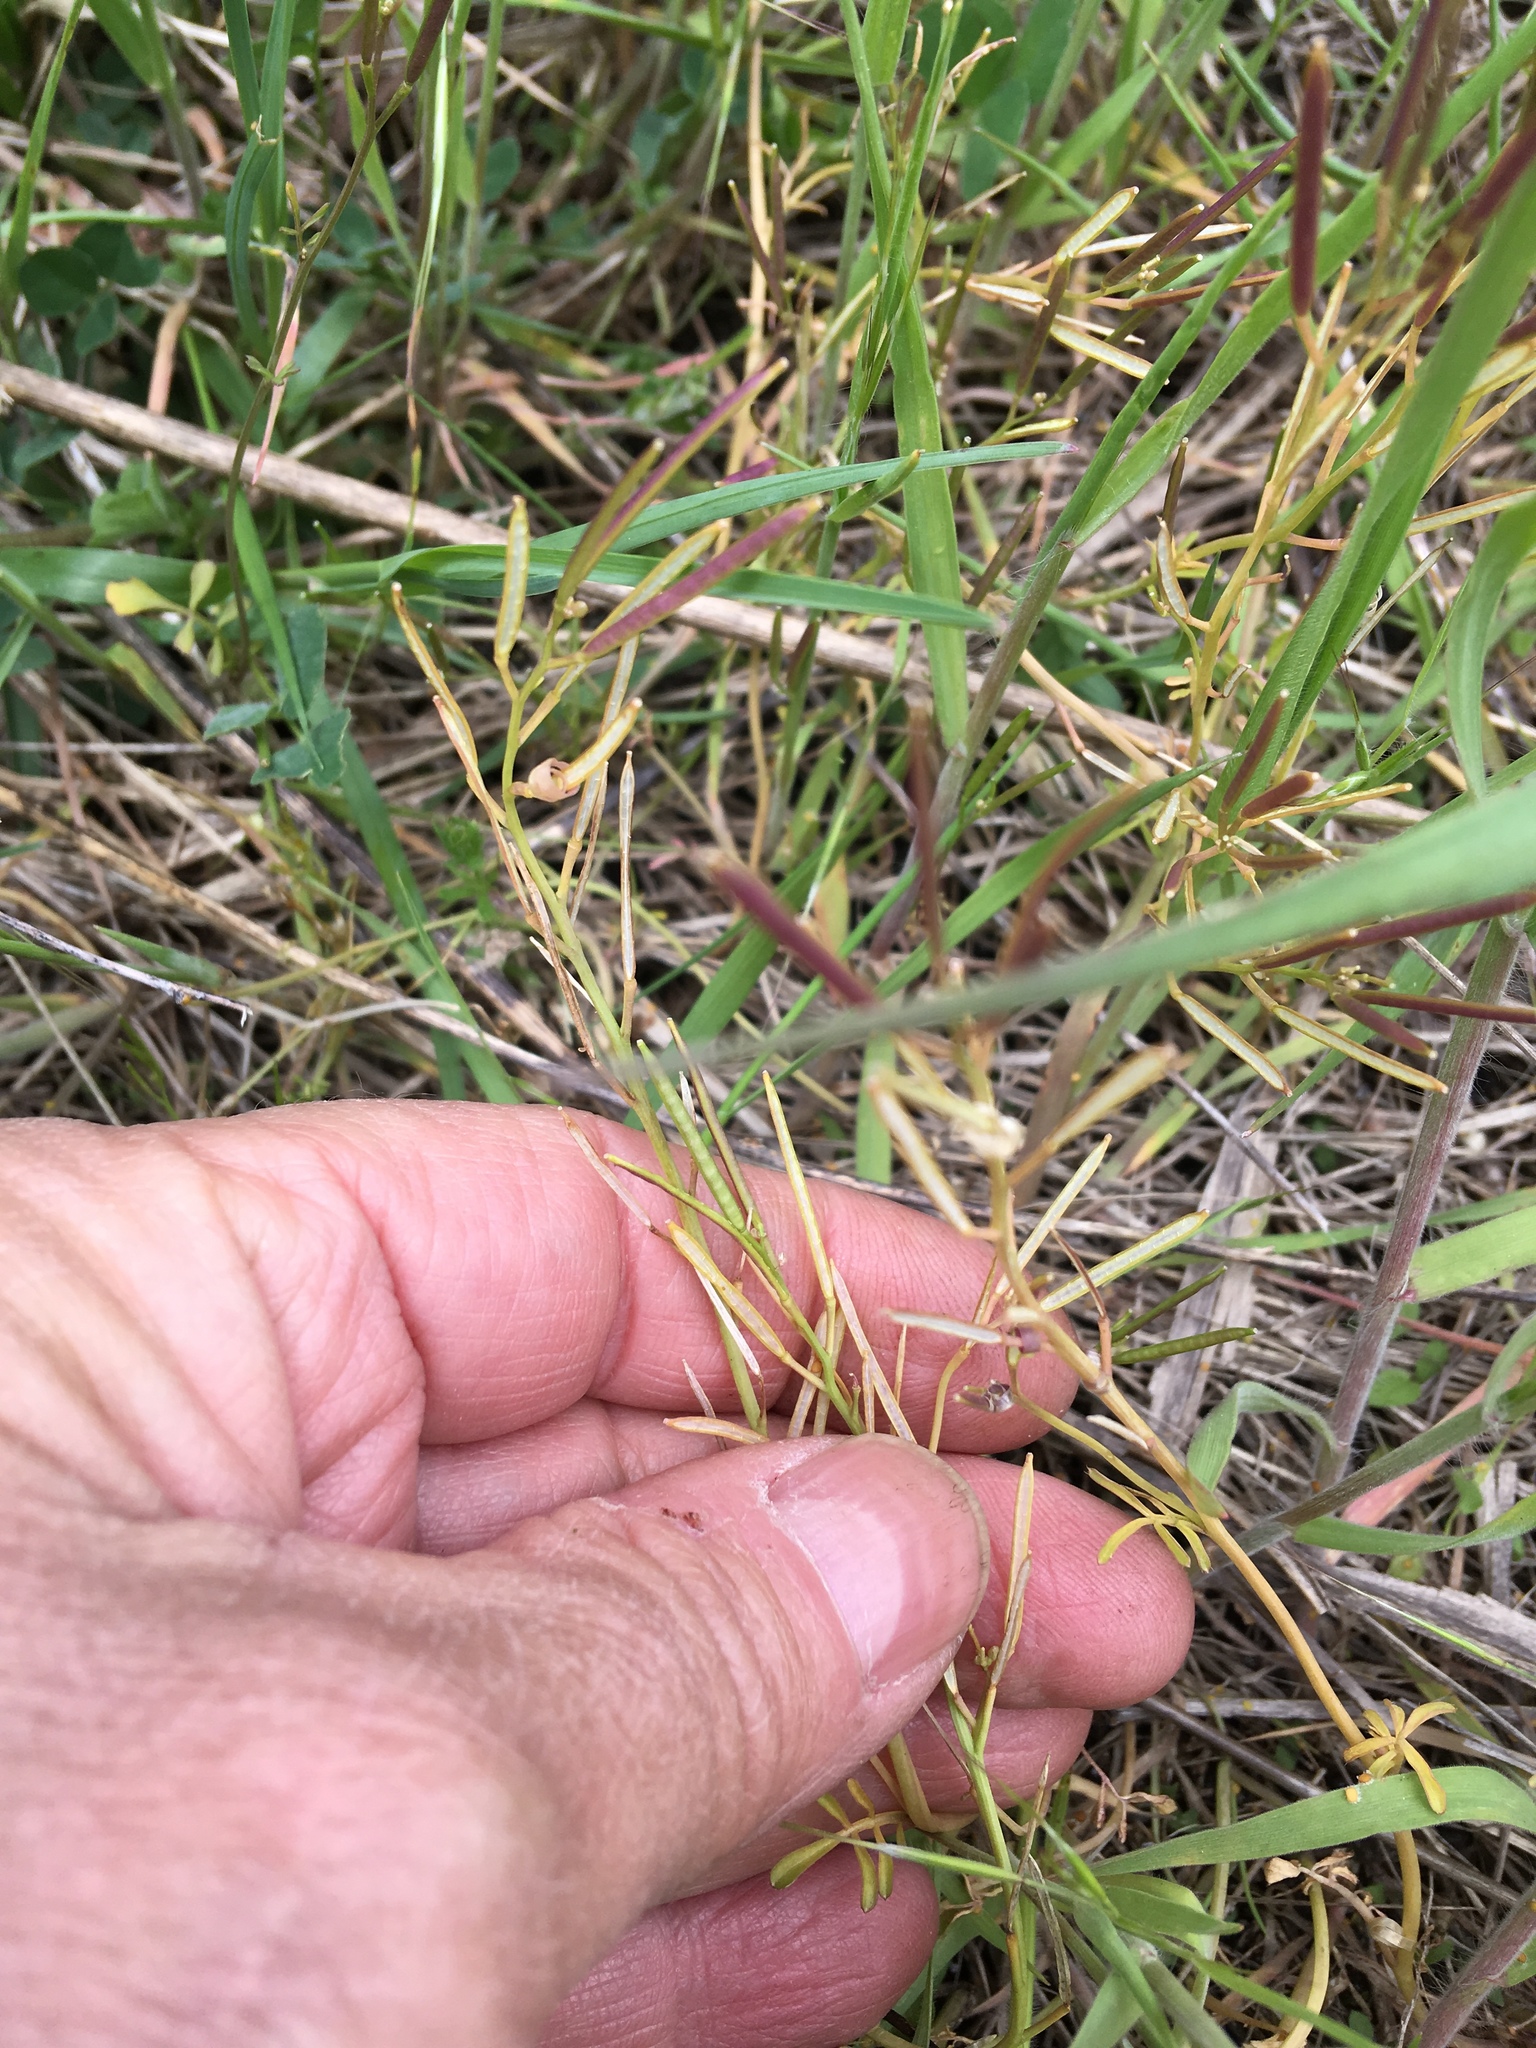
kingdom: Plantae
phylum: Tracheophyta
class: Magnoliopsida
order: Brassicales
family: Brassicaceae
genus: Cardamine
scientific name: Cardamine hirsuta
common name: Hairy bittercress
